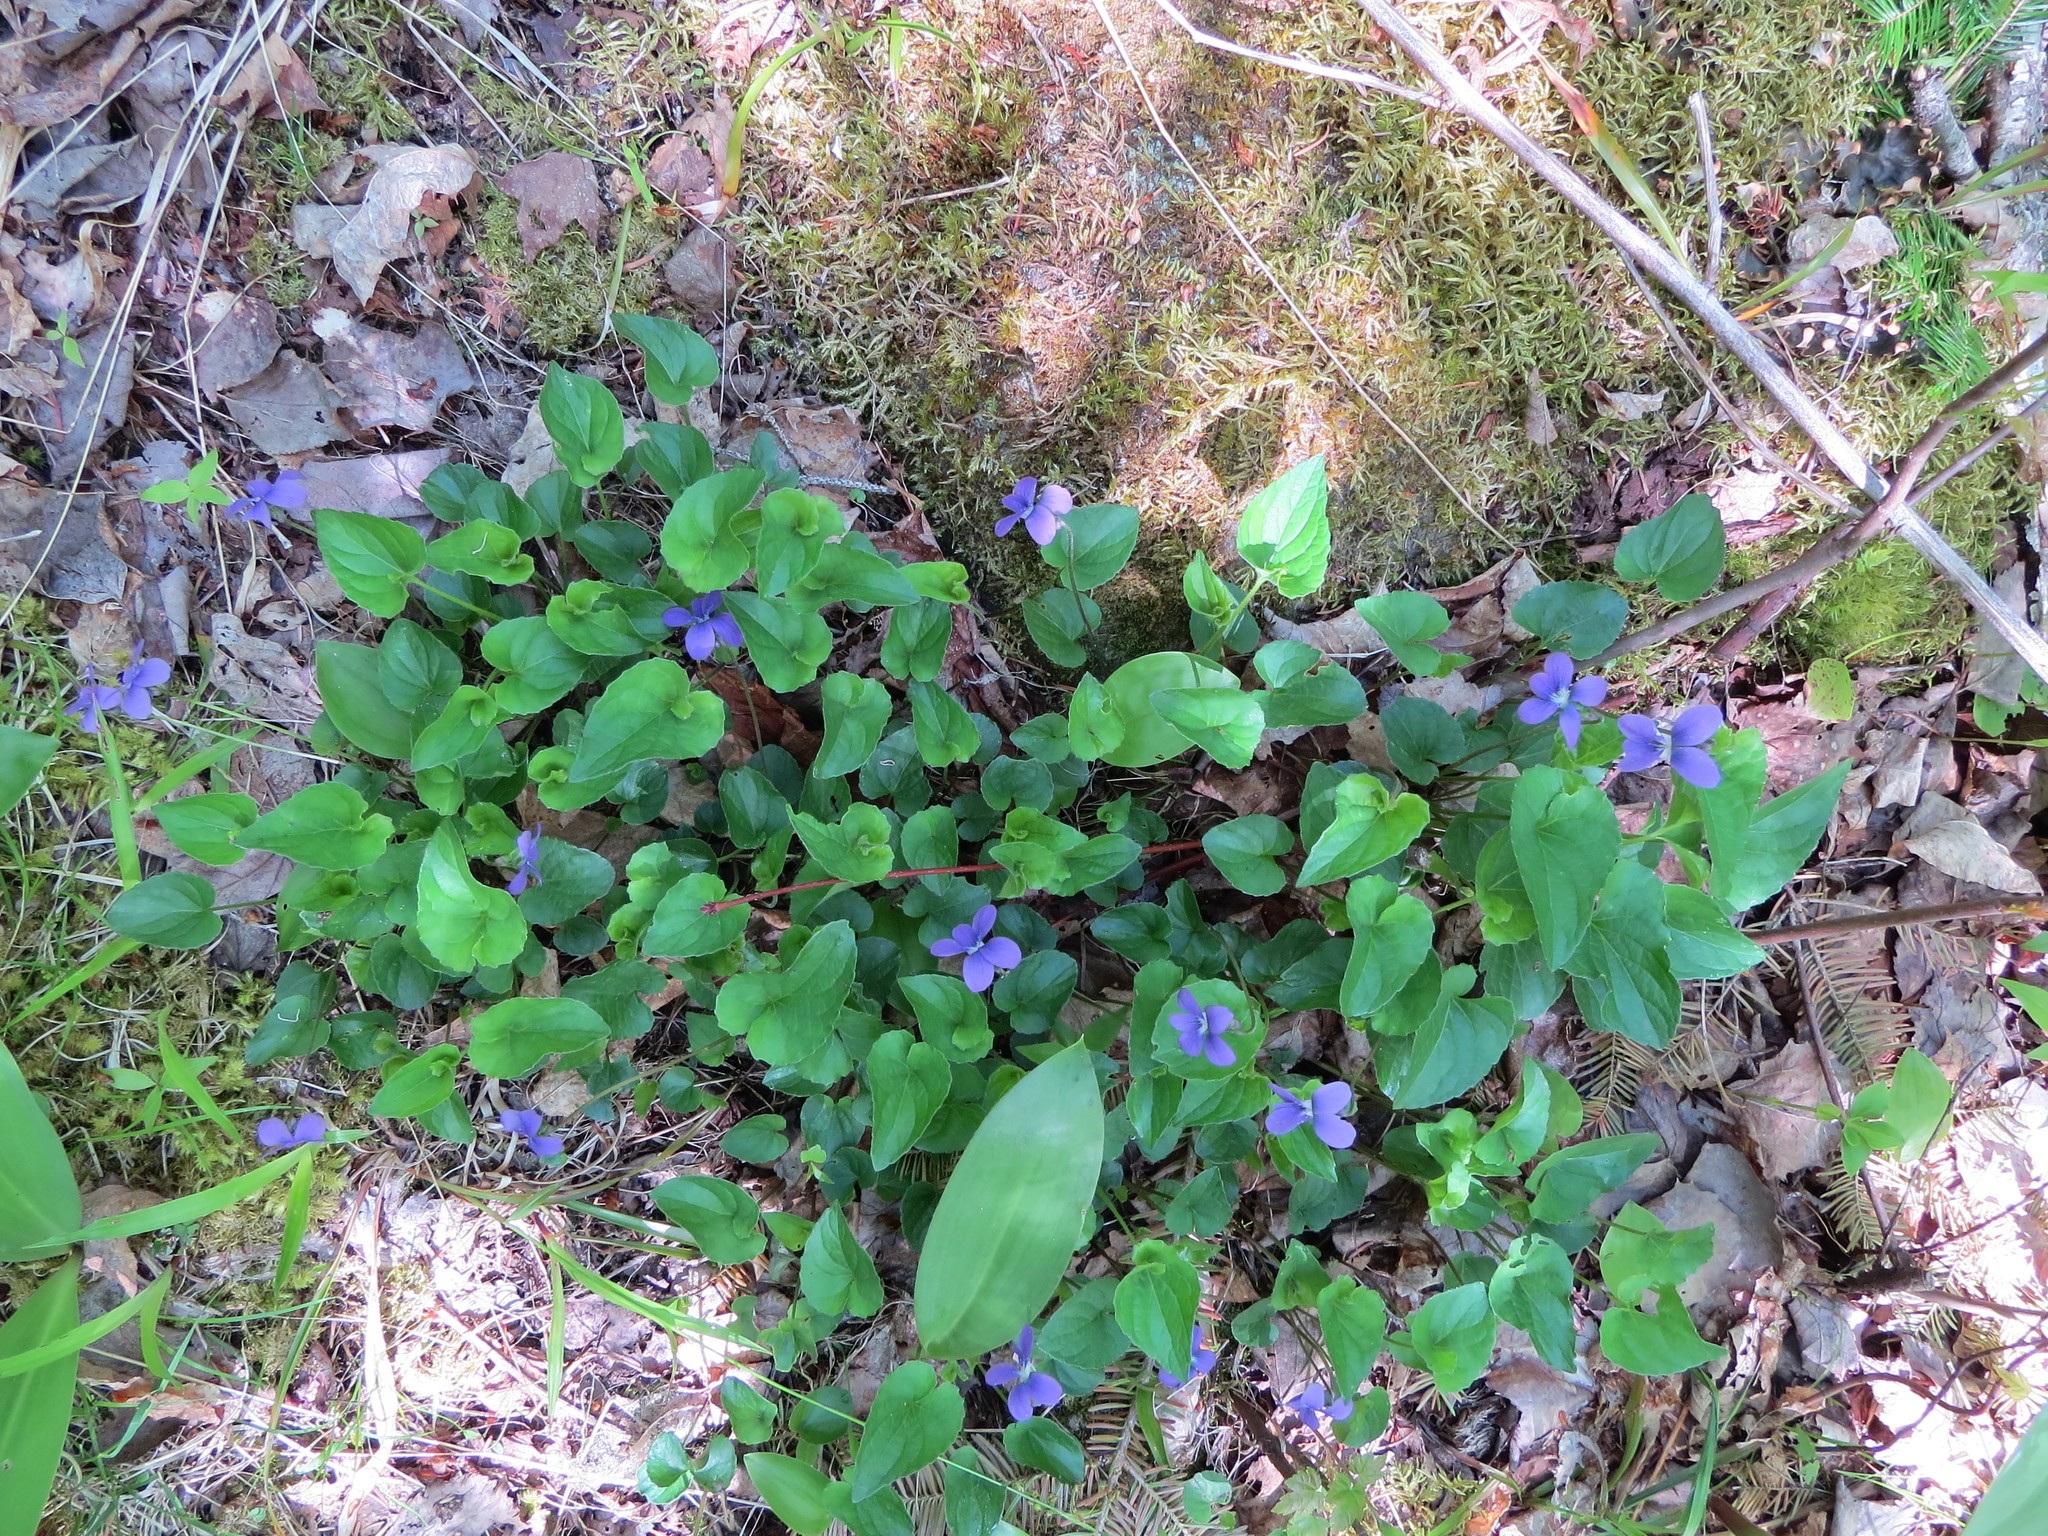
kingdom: Plantae
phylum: Tracheophyta
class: Magnoliopsida
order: Malpighiales
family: Violaceae
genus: Viola
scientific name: Viola sororia
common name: Dooryard violet
